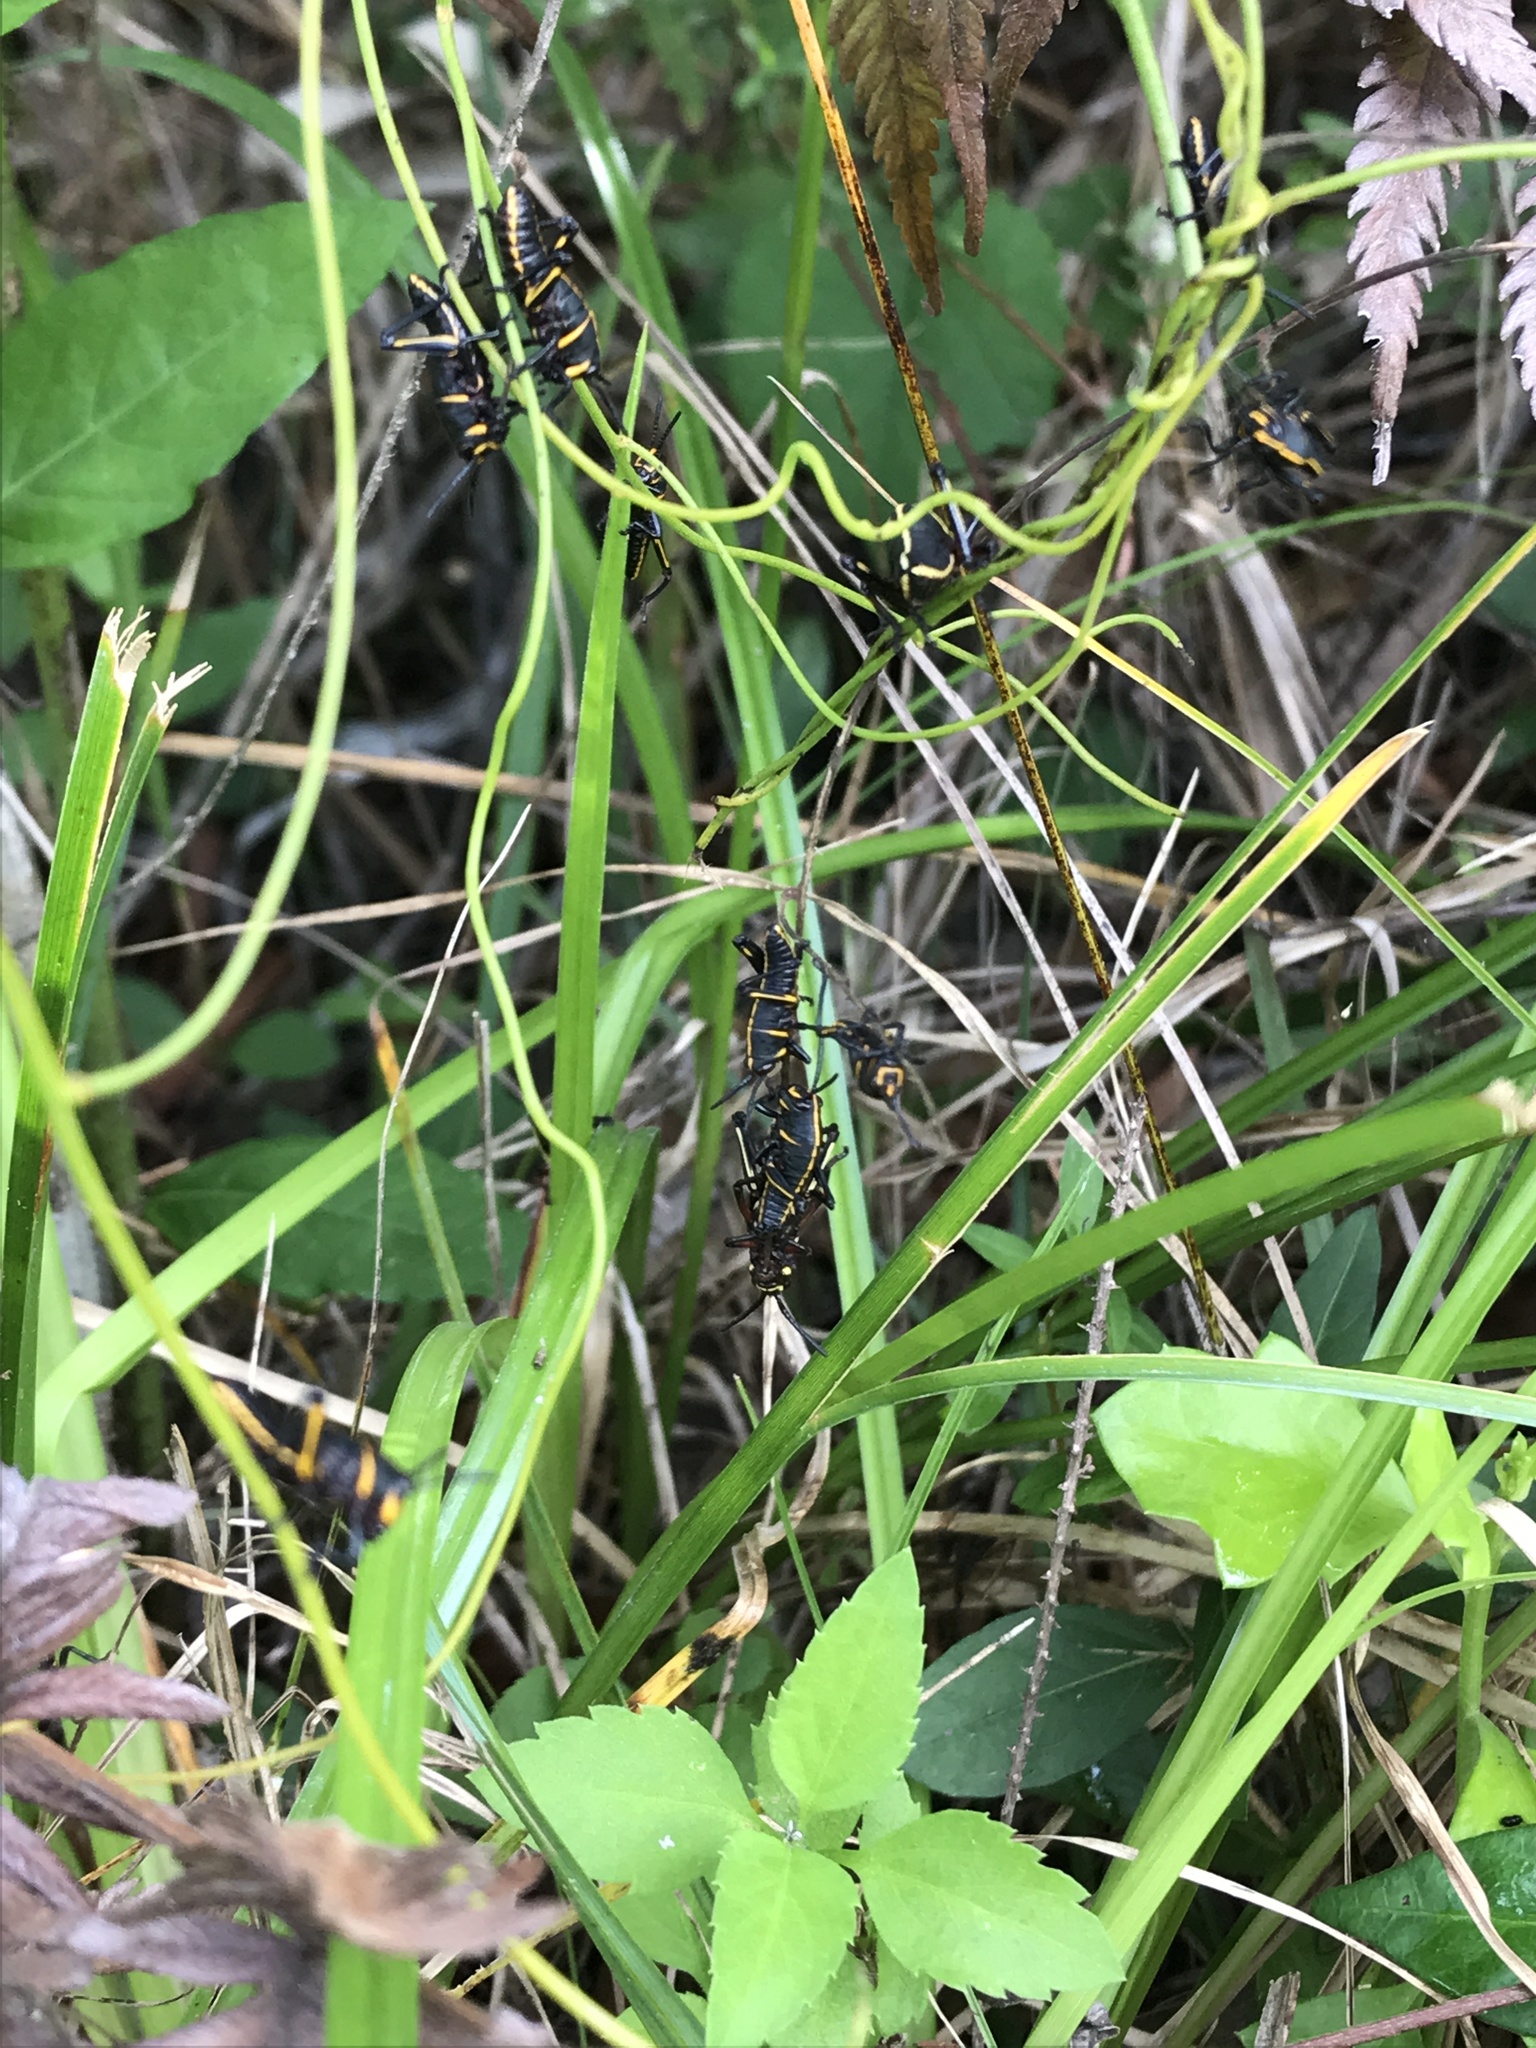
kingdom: Animalia
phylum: Arthropoda
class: Insecta
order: Orthoptera
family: Romaleidae
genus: Romalea
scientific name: Romalea microptera
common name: Eastern lubber grasshopper
